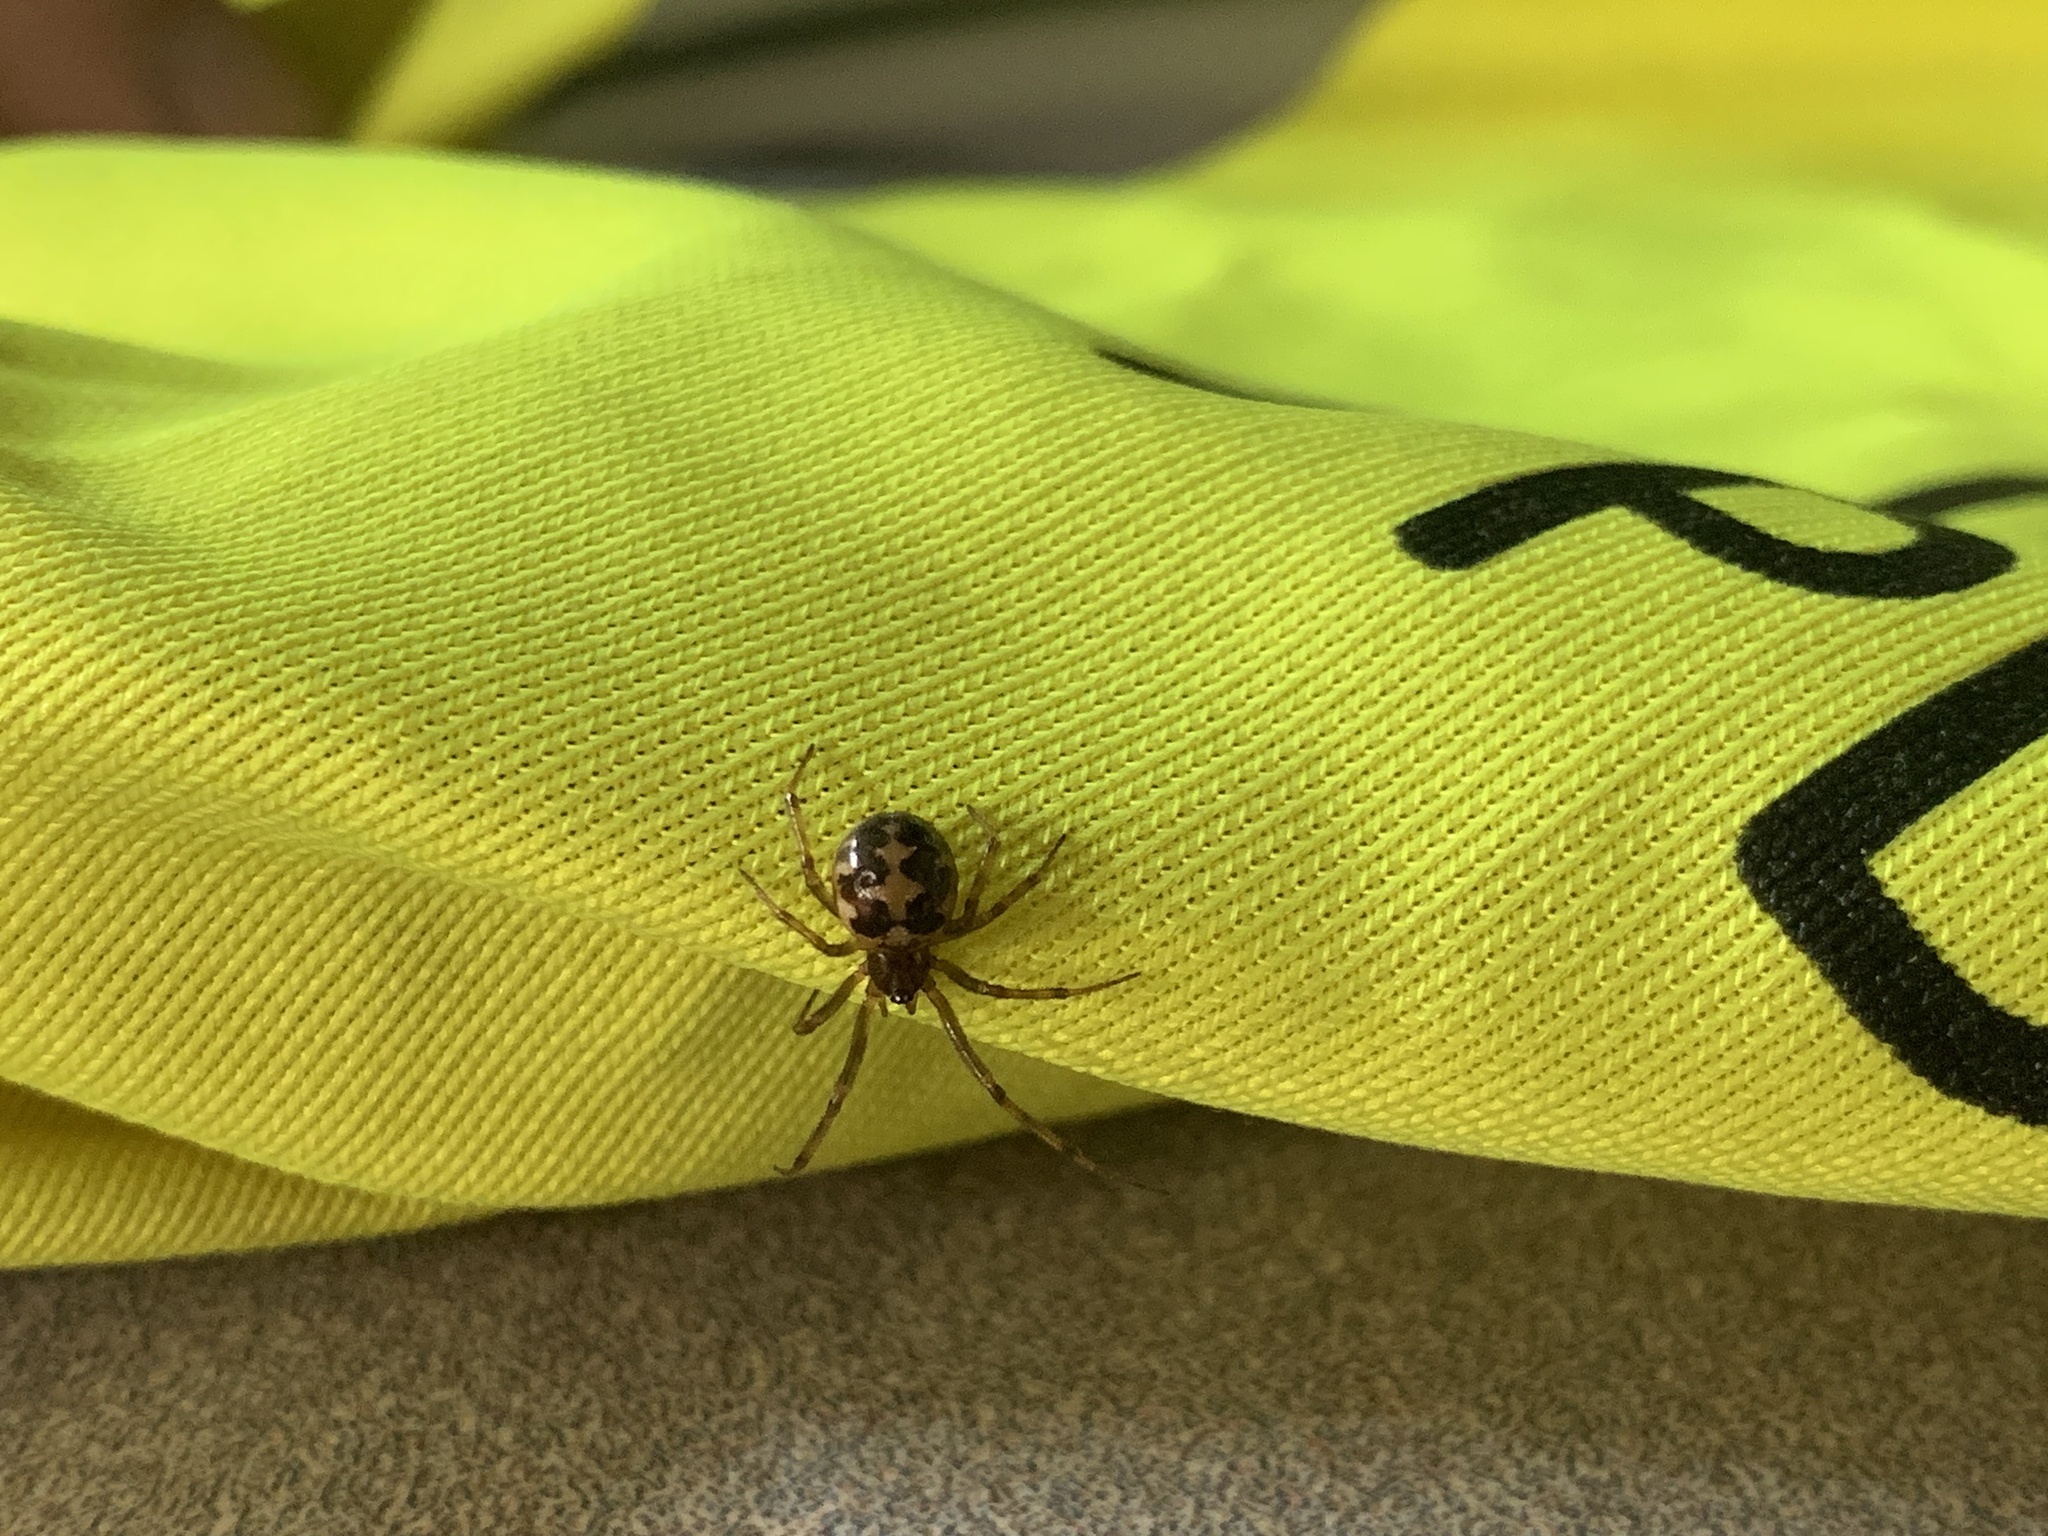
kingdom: Animalia
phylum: Arthropoda
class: Arachnida
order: Araneae
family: Theridiidae
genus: Steatoda
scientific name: Steatoda triangulosa
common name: Triangulate bud spider
